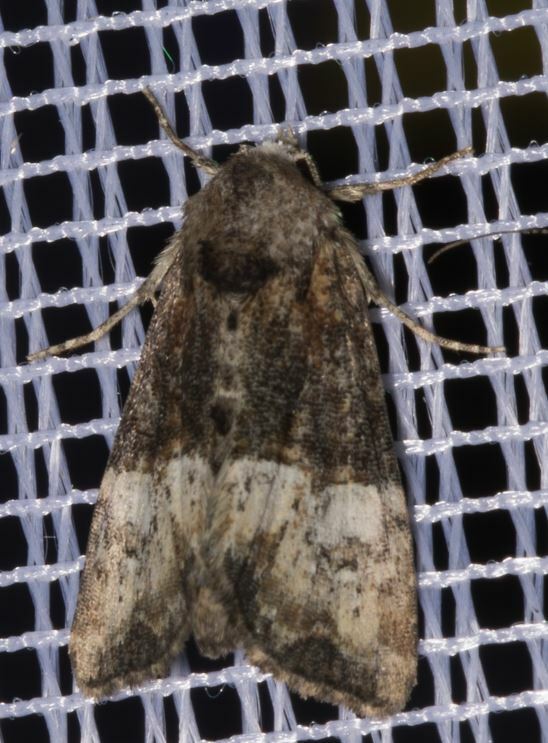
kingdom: Animalia
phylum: Arthropoda
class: Insecta
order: Lepidoptera
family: Noctuidae
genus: Mesoligia
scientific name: Mesoligia furuncula
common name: Cloaked minor
